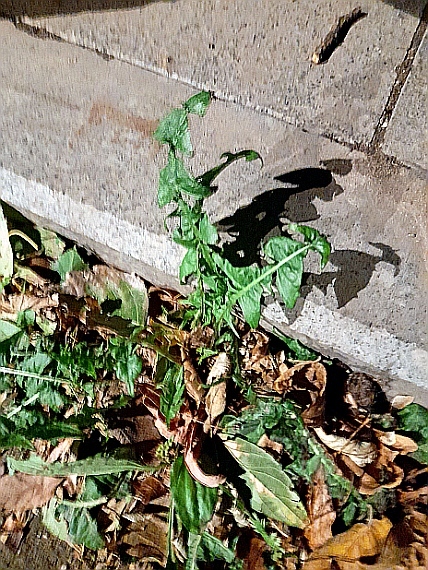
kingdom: Plantae
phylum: Tracheophyta
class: Magnoliopsida
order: Asterales
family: Asteraceae
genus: Taraxacum
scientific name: Taraxacum officinale
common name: Common dandelion
